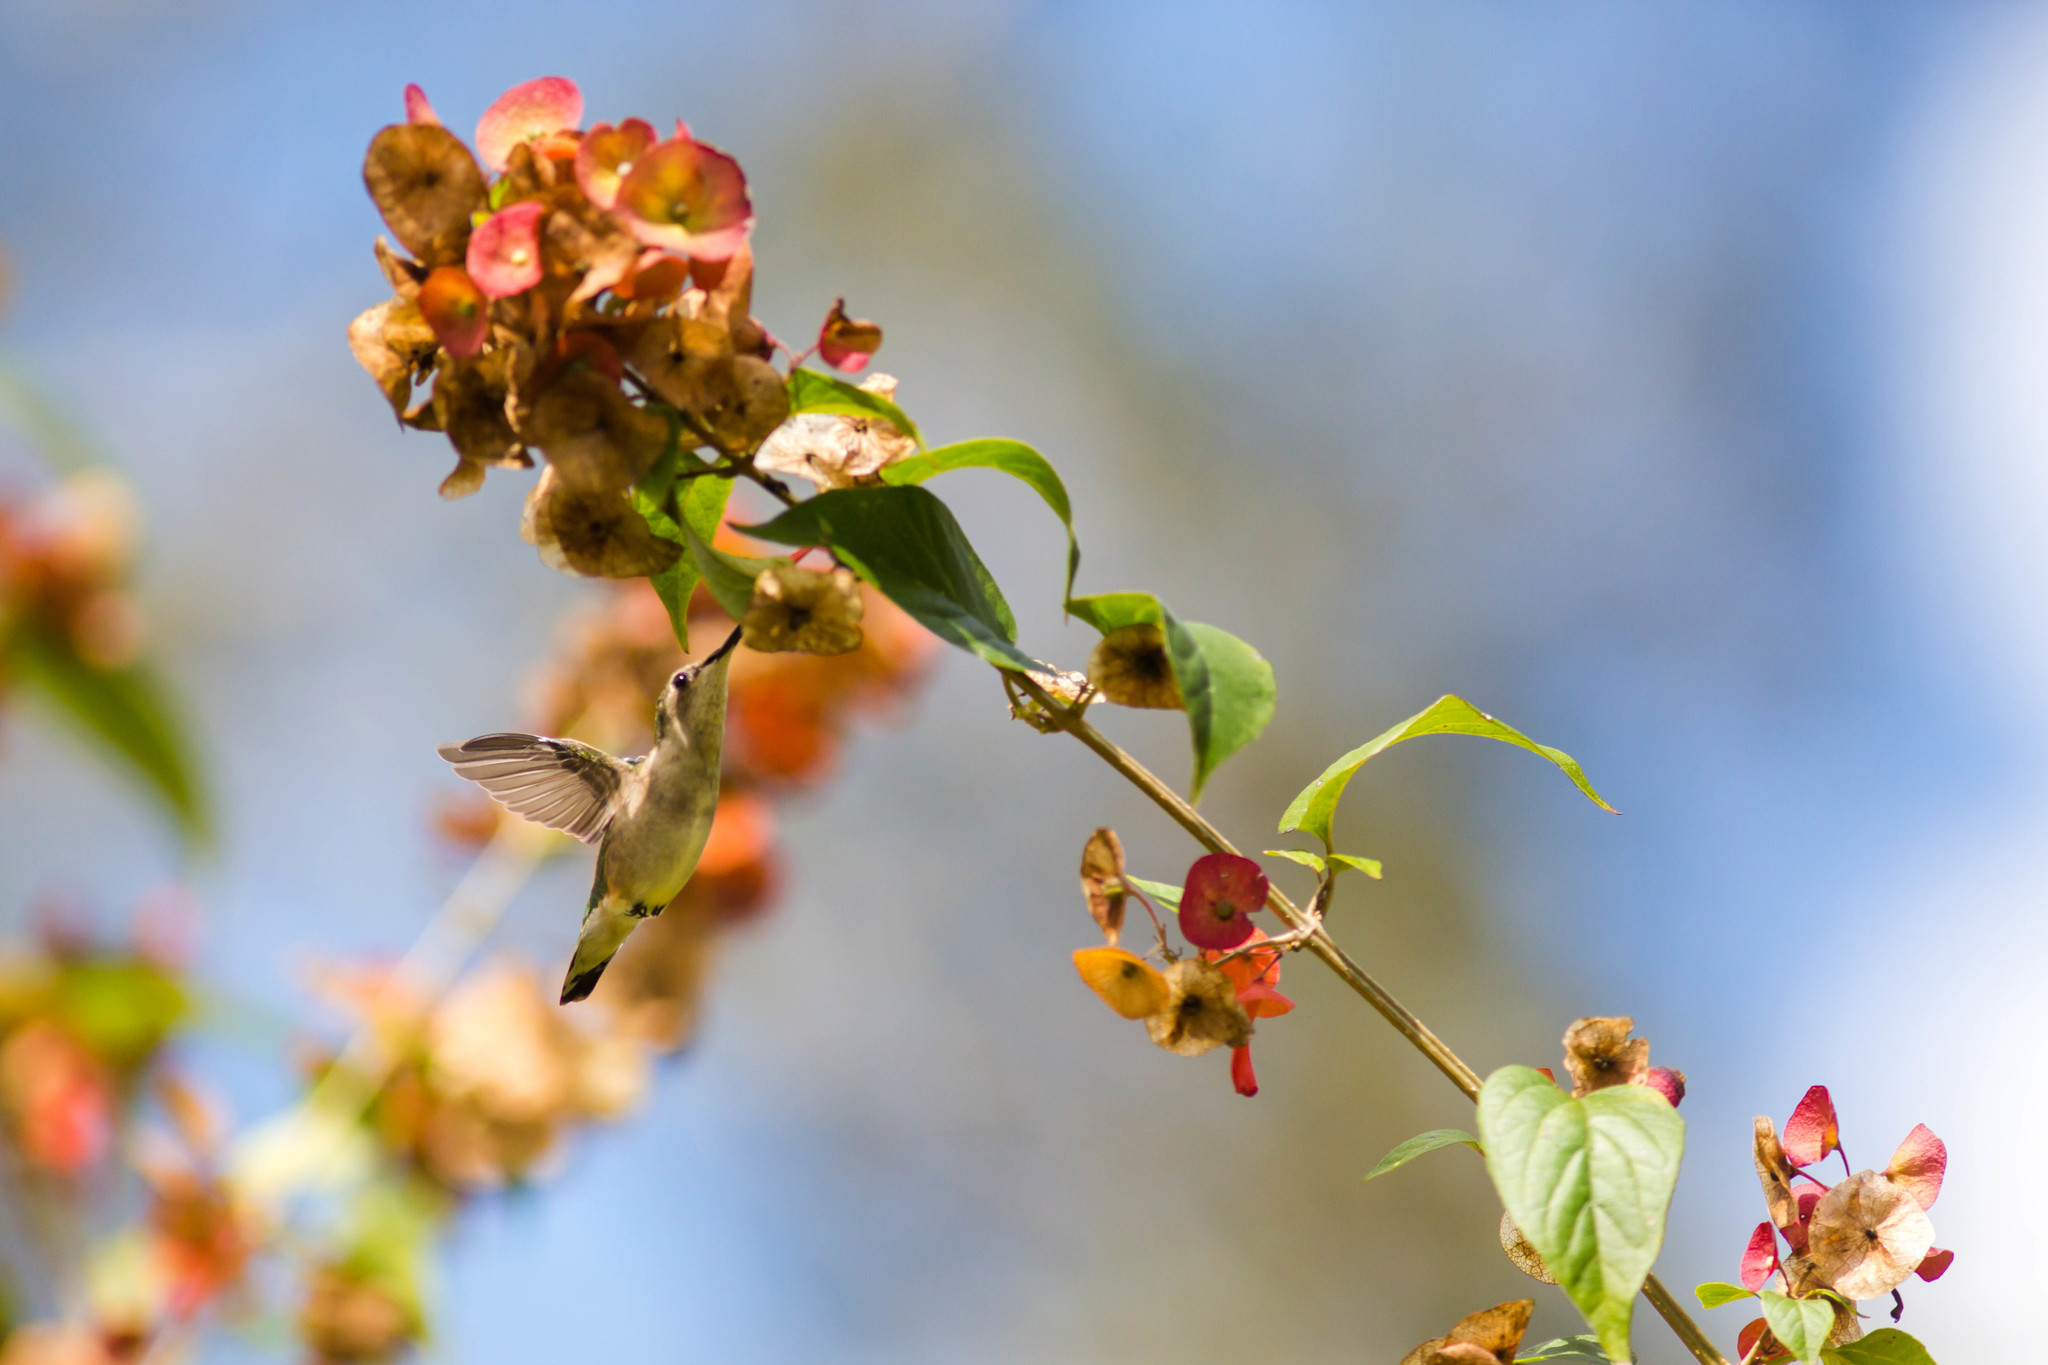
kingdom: Animalia
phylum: Chordata
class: Aves
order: Apodiformes
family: Trochilidae
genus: Archilochus
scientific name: Archilochus colubris
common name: Ruby-throated hummingbird
